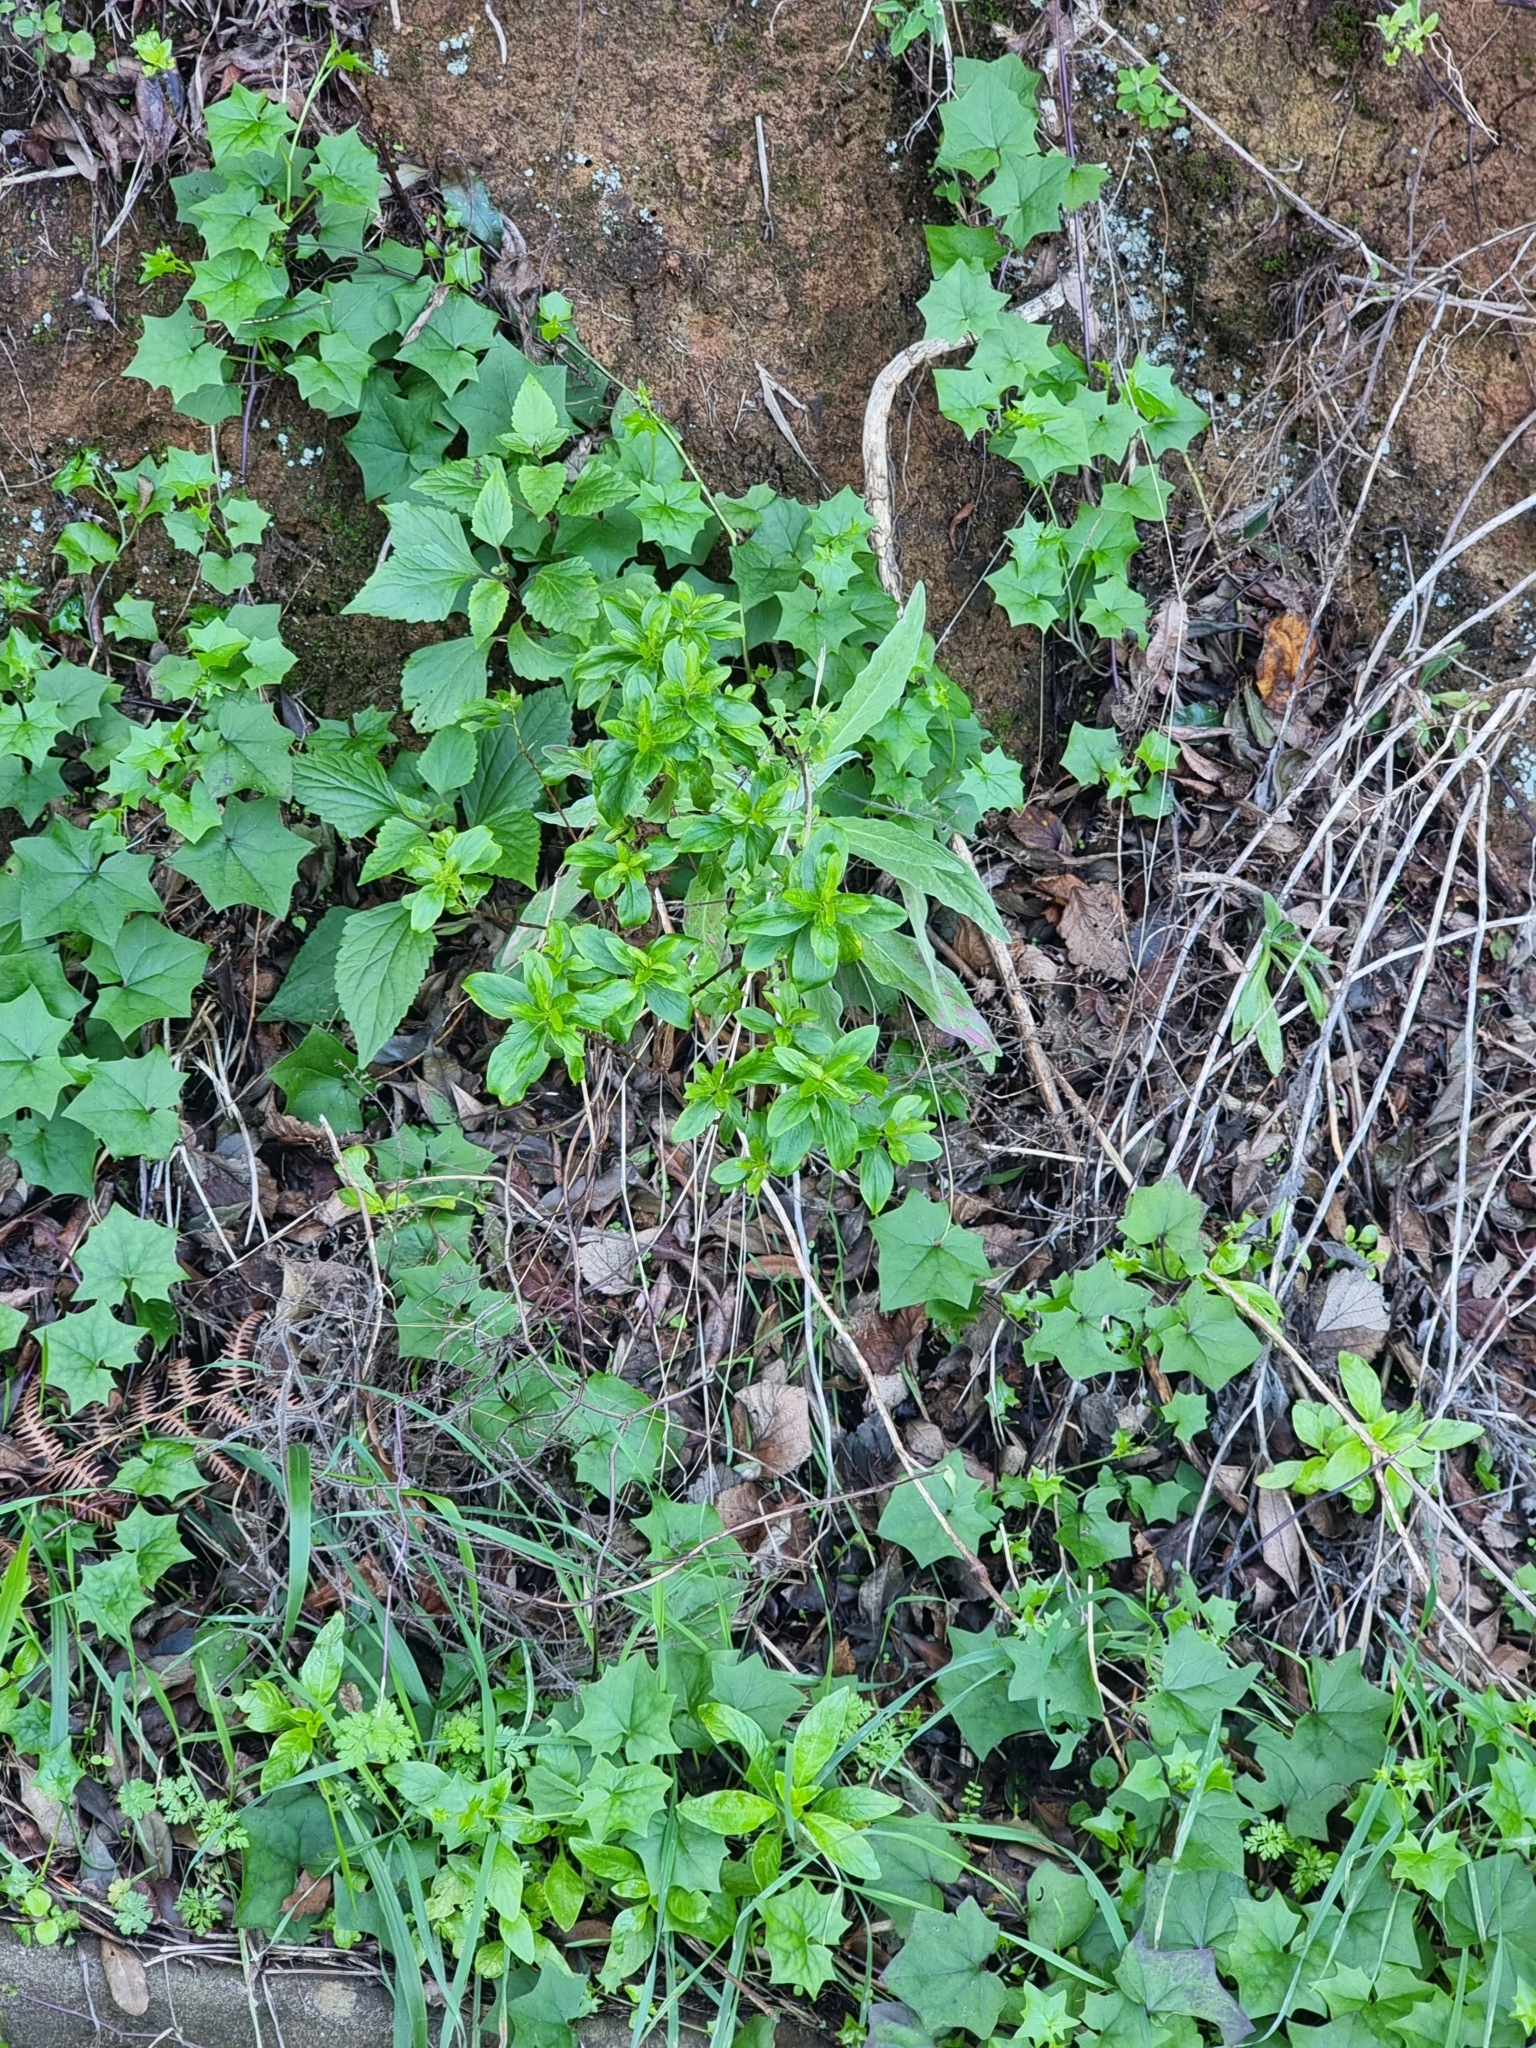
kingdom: Plantae
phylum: Tracheophyta
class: Magnoliopsida
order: Malpighiales
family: Hypericaceae
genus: Hypericum
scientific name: Hypericum glandulosum
